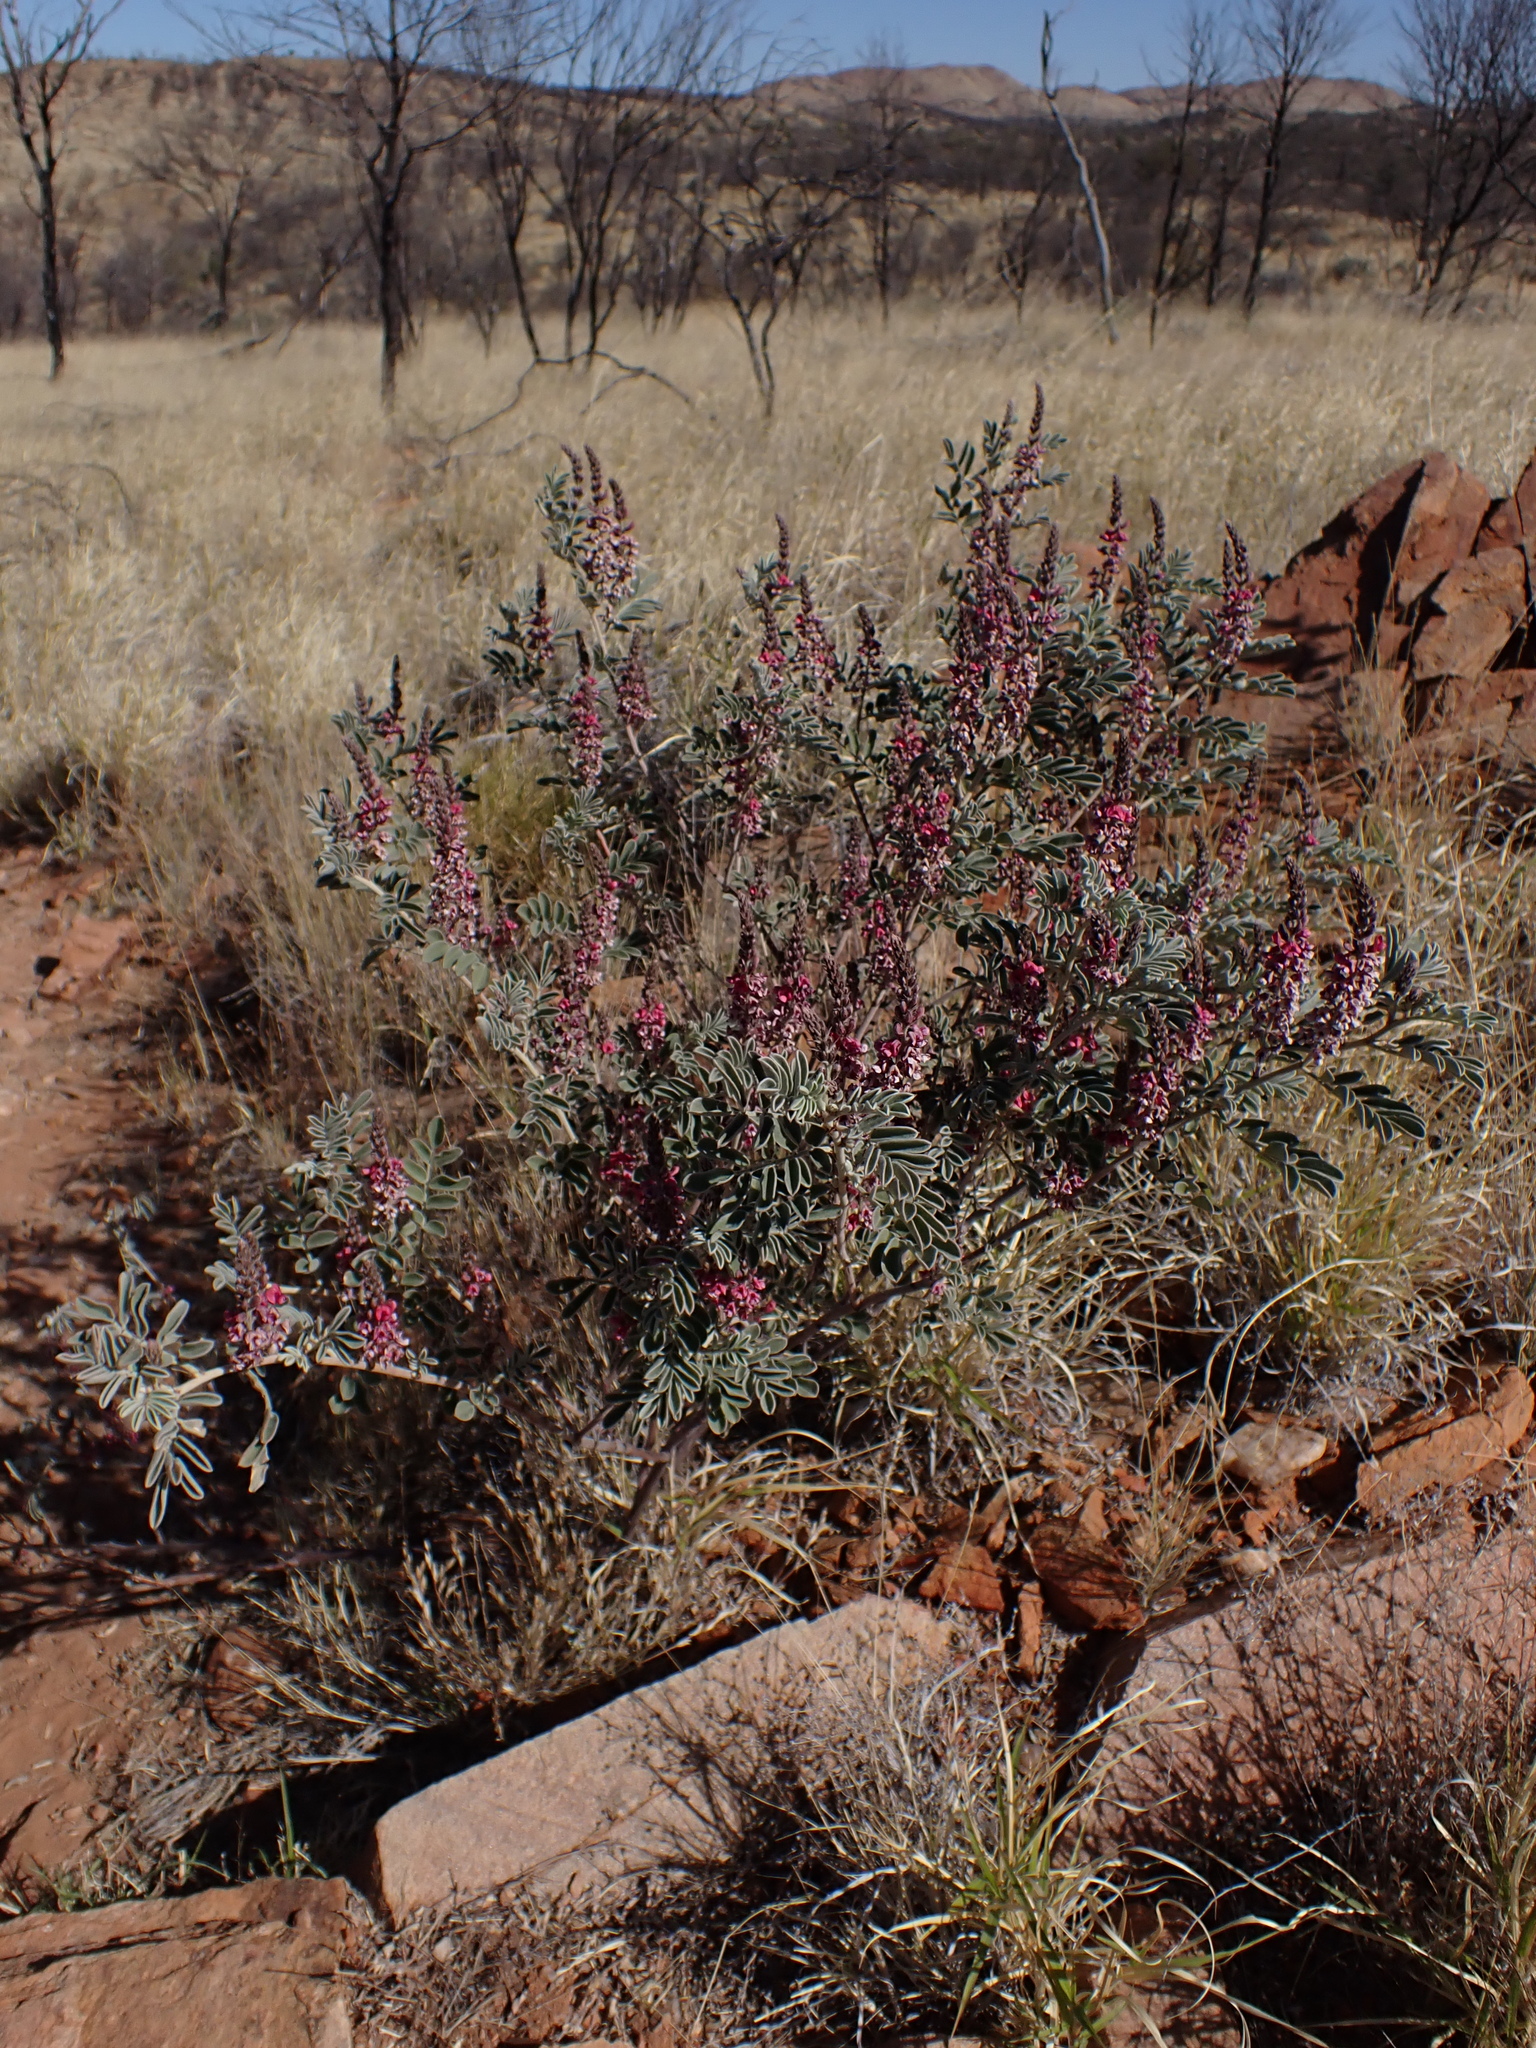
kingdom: Plantae
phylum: Tracheophyta
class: Magnoliopsida
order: Fabales
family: Fabaceae
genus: Indigofera
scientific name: Indigofera basedowii
